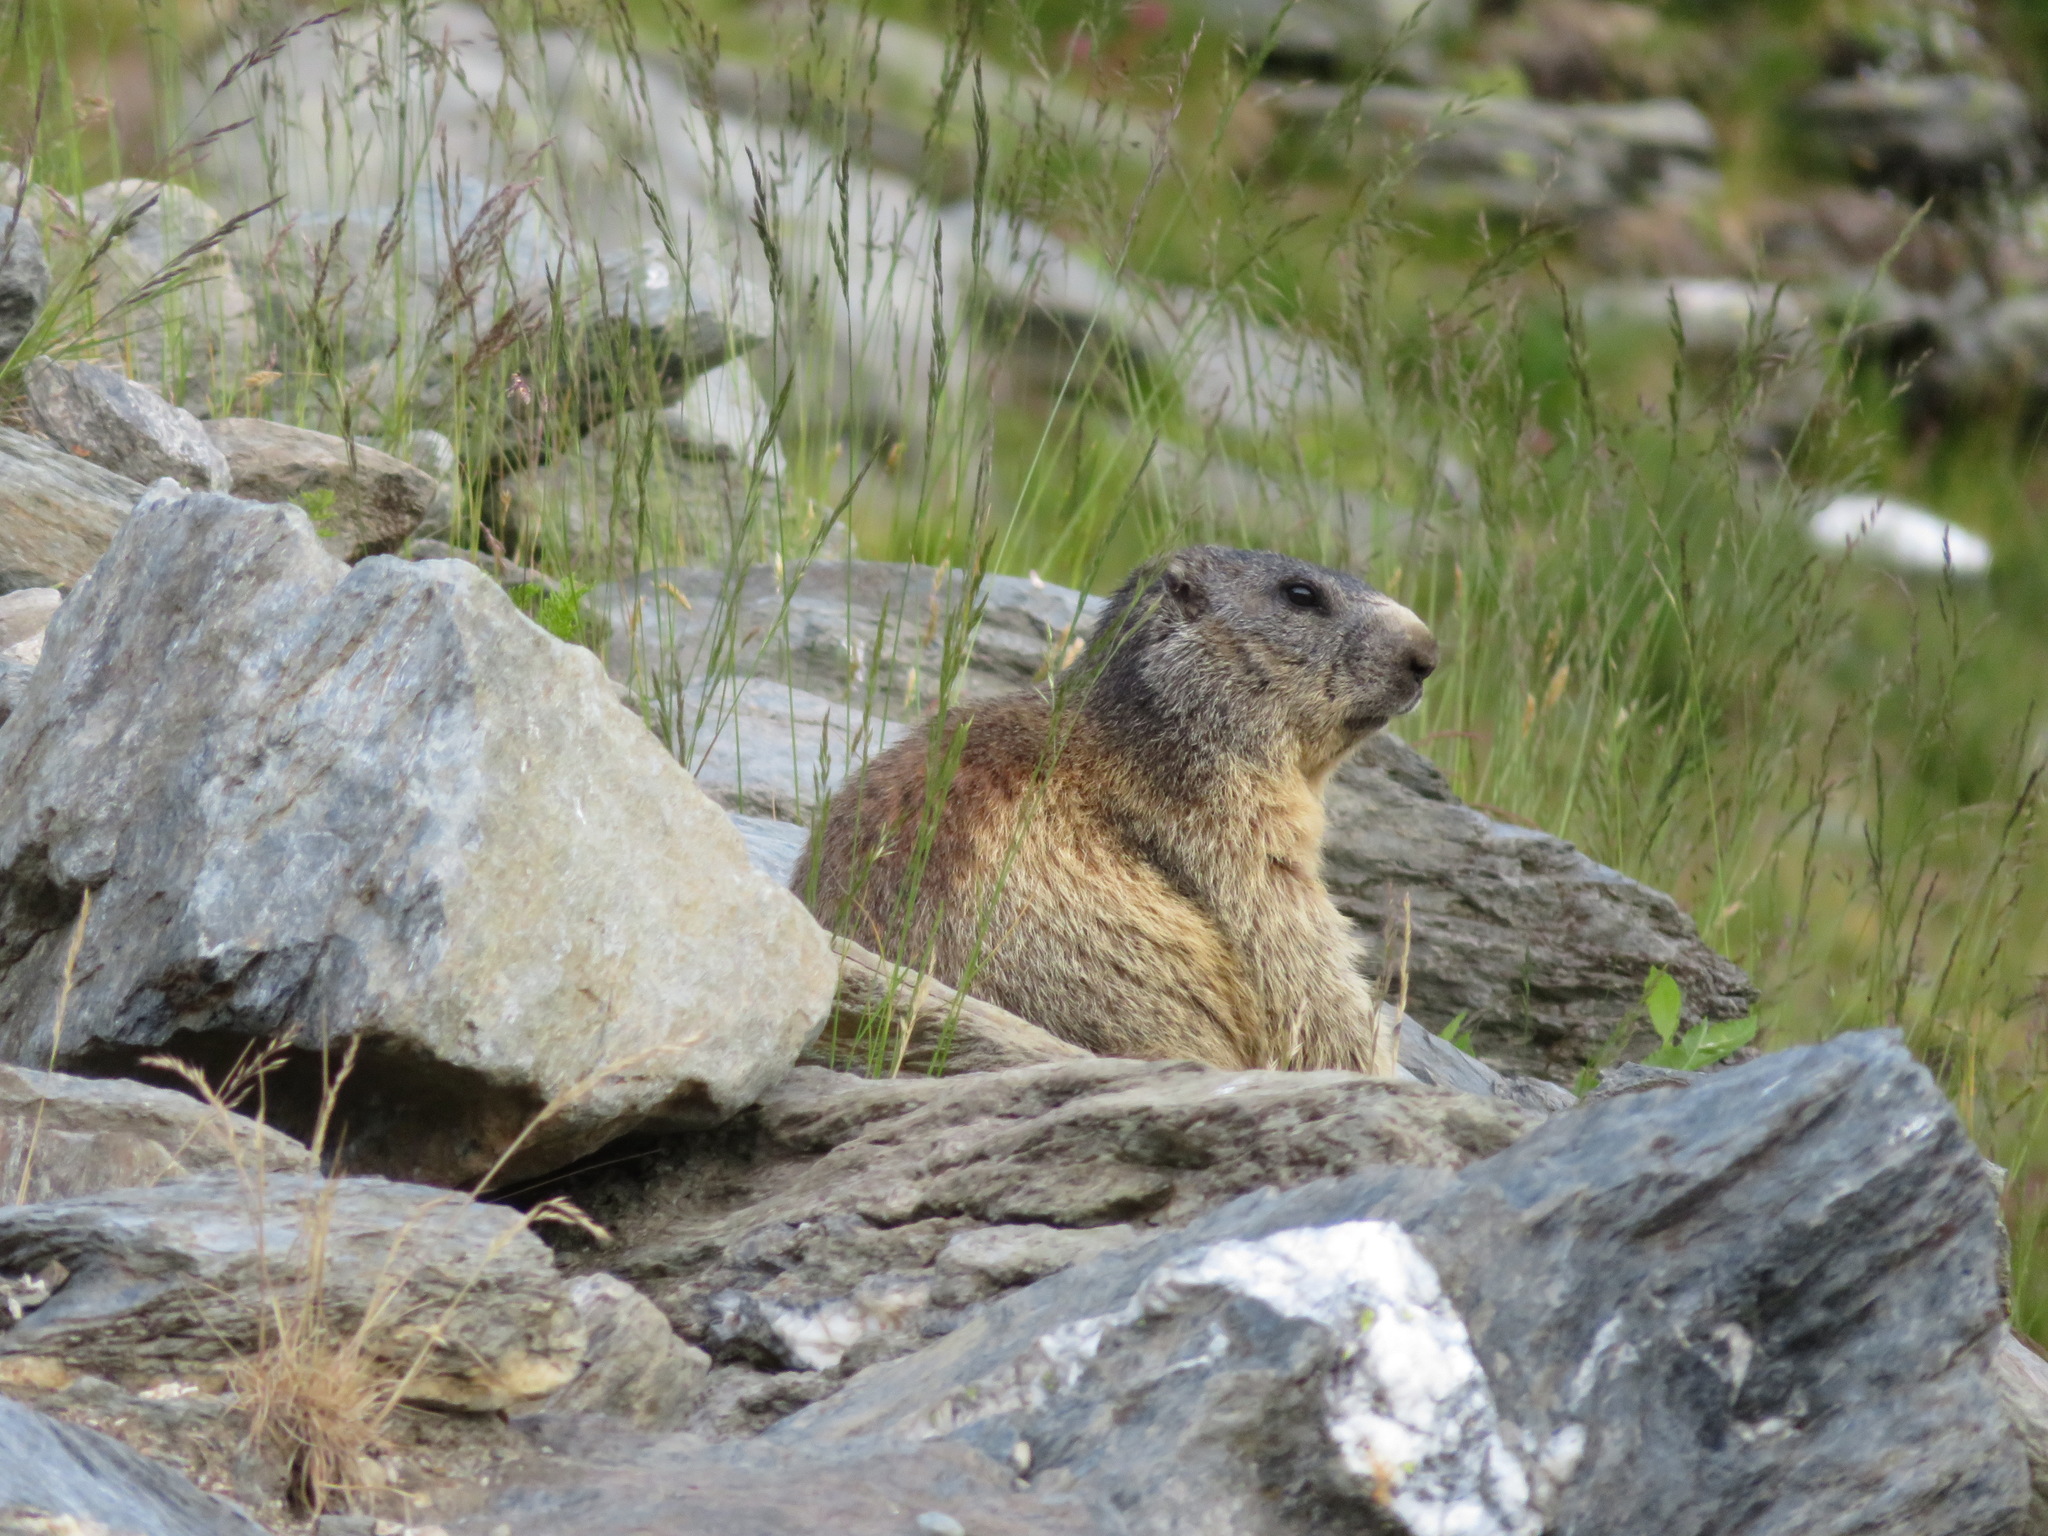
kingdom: Animalia
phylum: Chordata
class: Mammalia
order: Rodentia
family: Sciuridae
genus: Marmota
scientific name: Marmota marmota
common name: Alpine marmot
